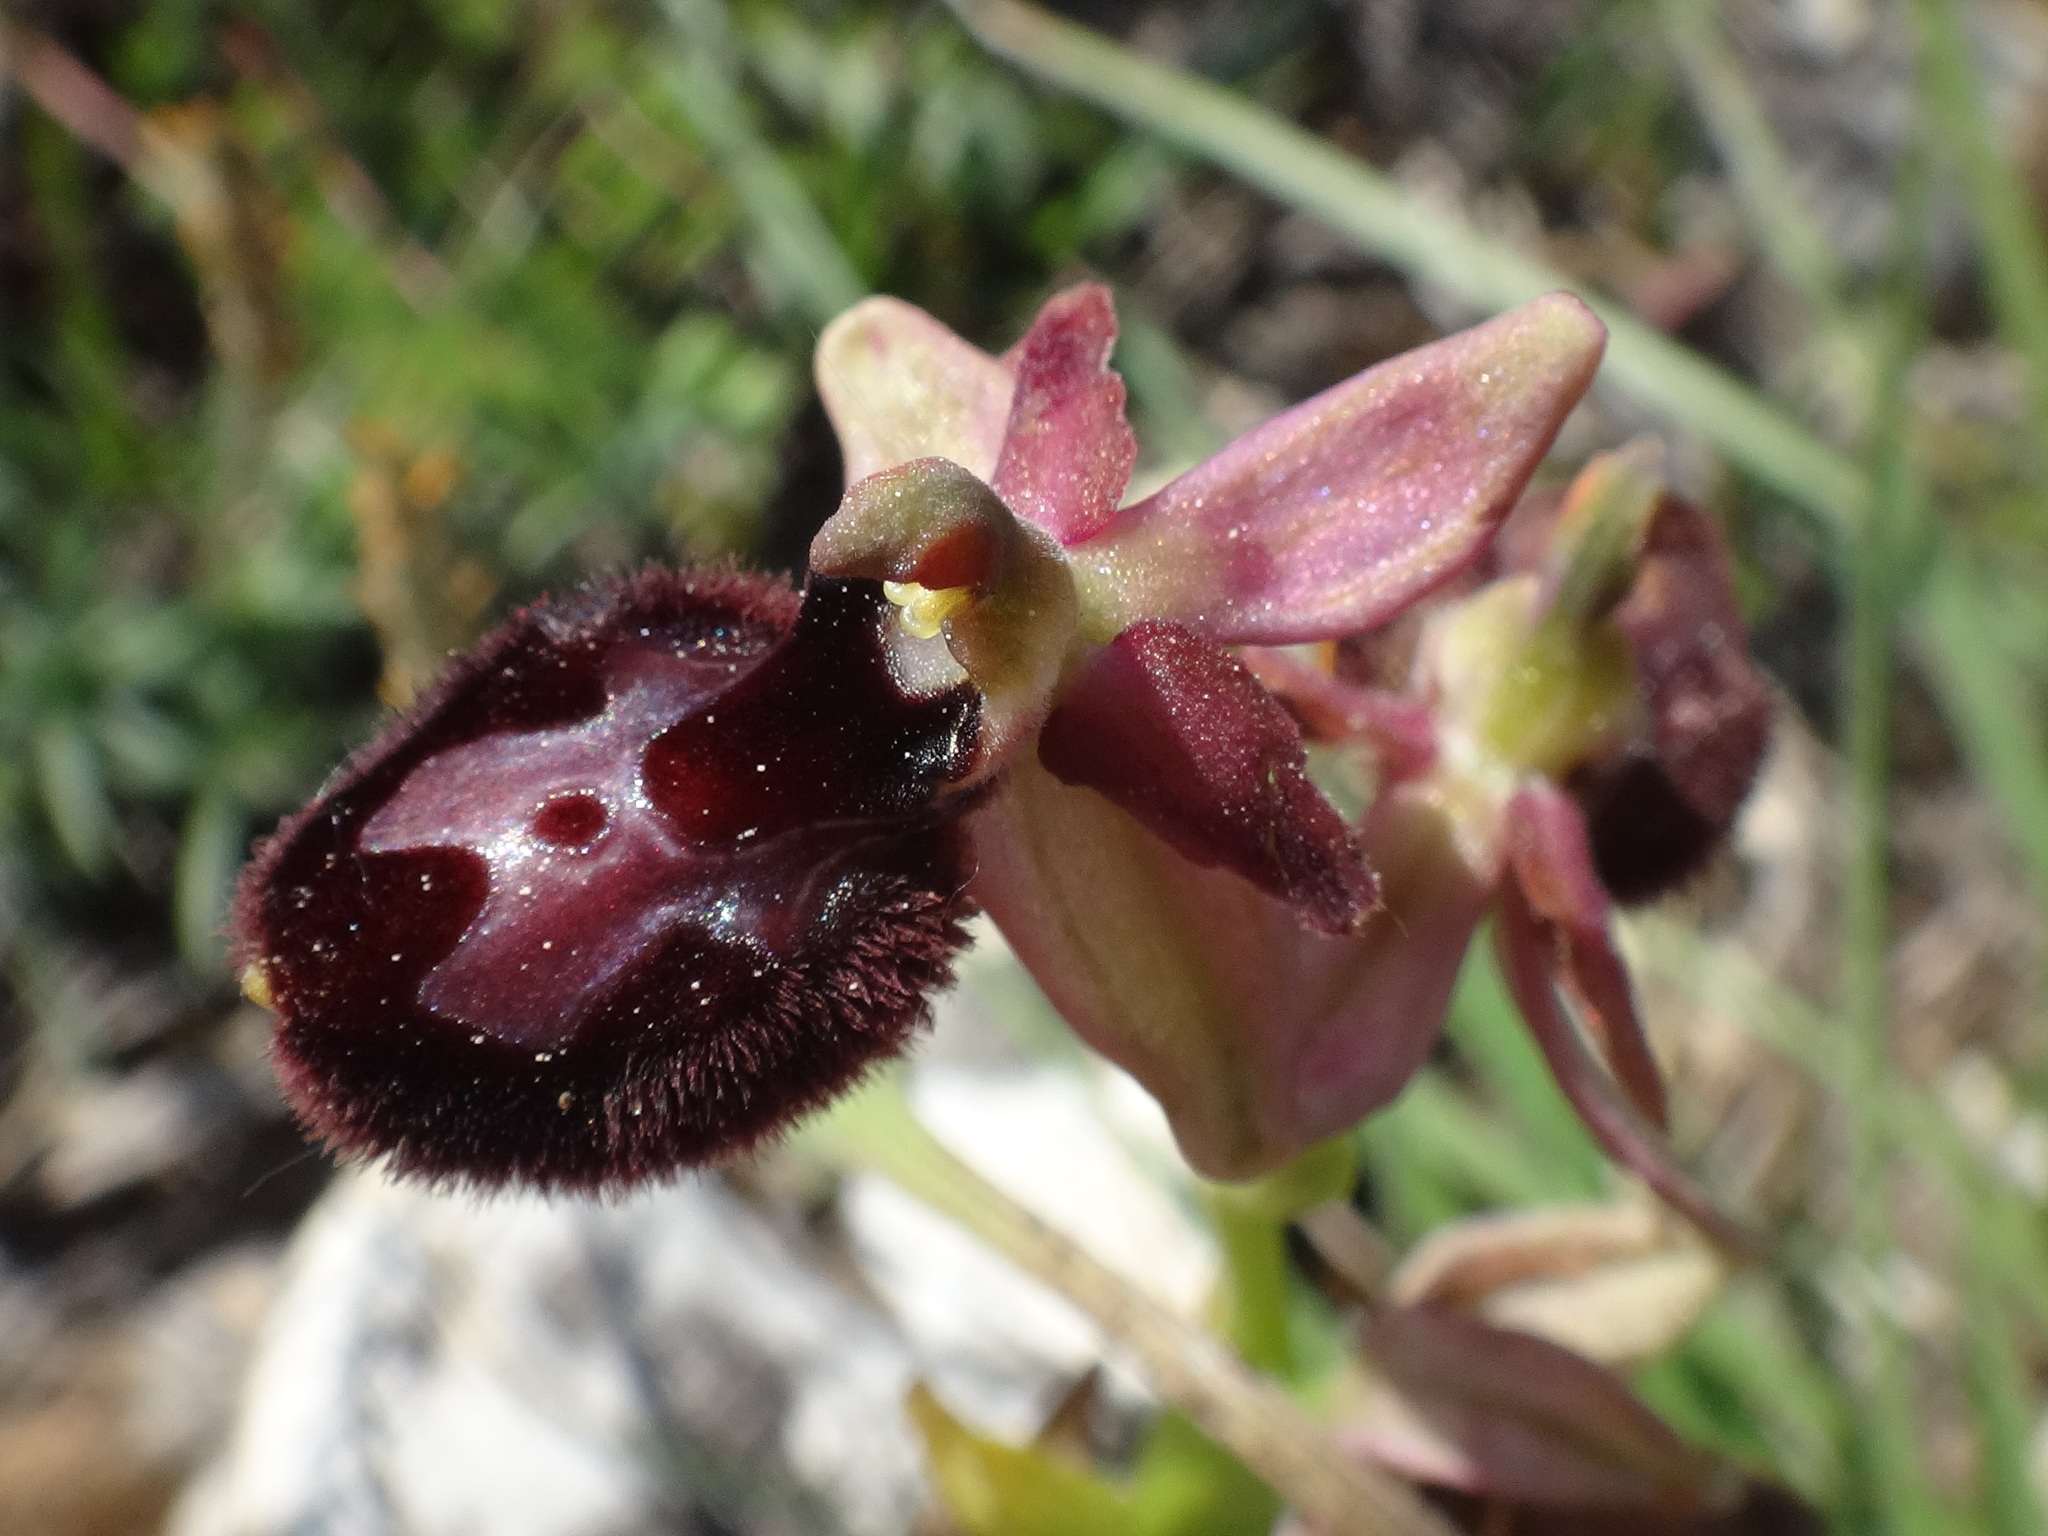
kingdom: Plantae
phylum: Tracheophyta
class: Liliopsida
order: Asparagales
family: Orchidaceae
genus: Ophrys
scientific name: Ophrys barlae
